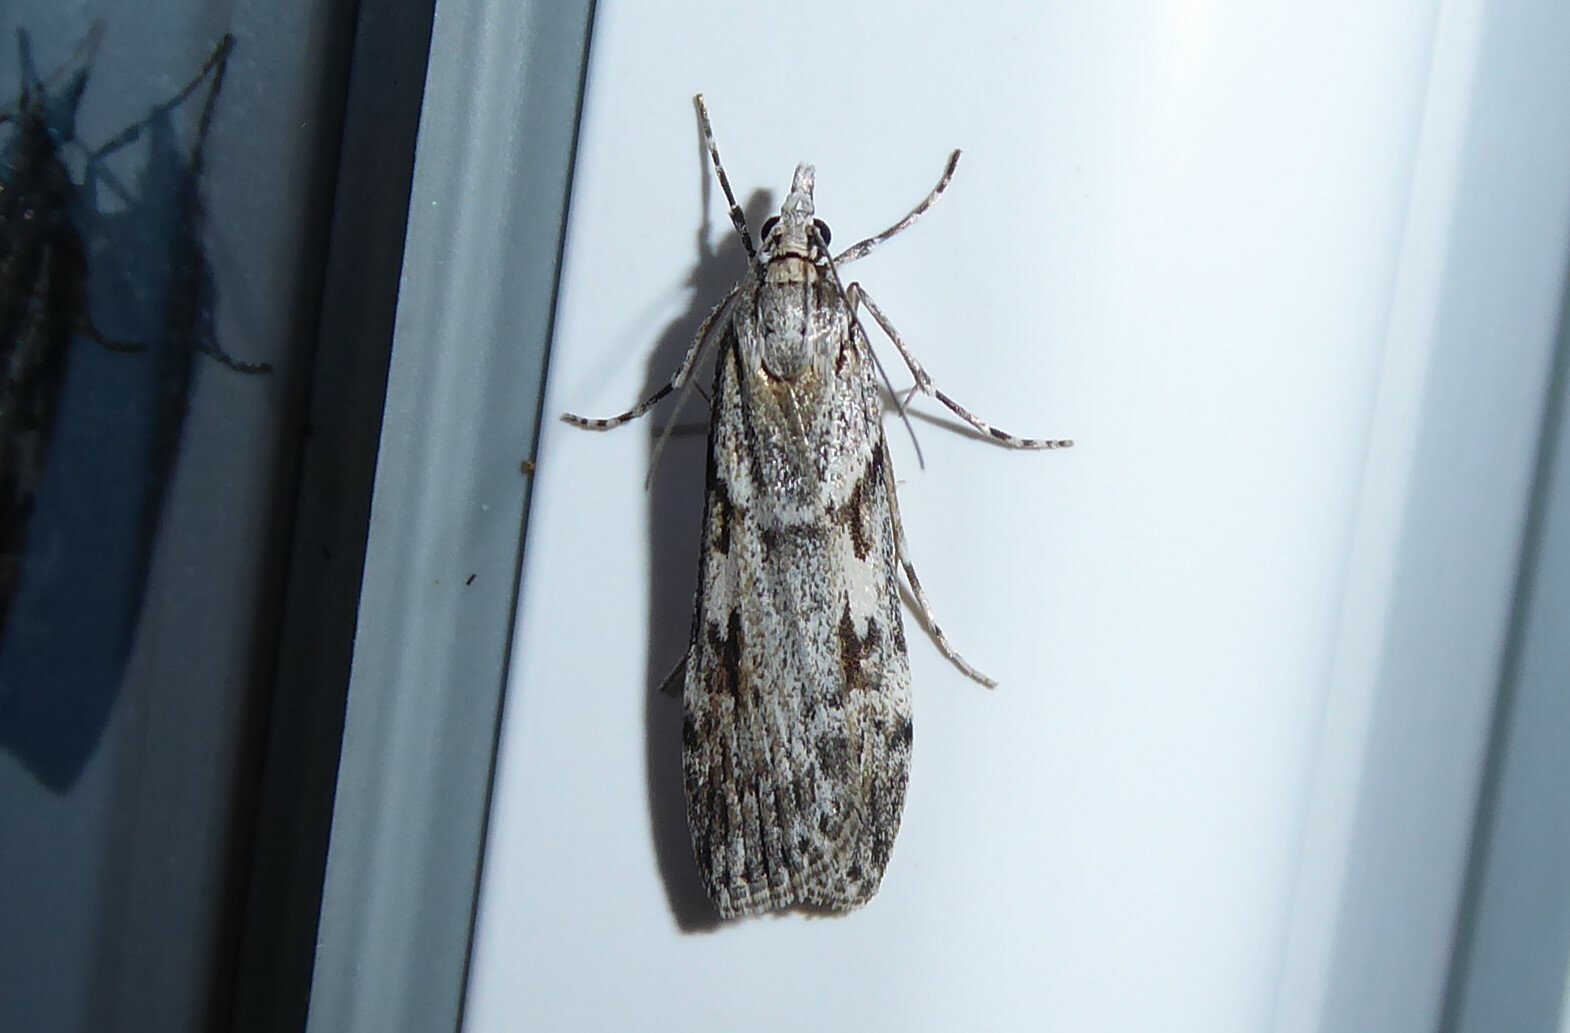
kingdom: Animalia
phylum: Arthropoda
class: Insecta
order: Lepidoptera
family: Crambidae
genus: Scoparia
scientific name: Scoparia halopis
